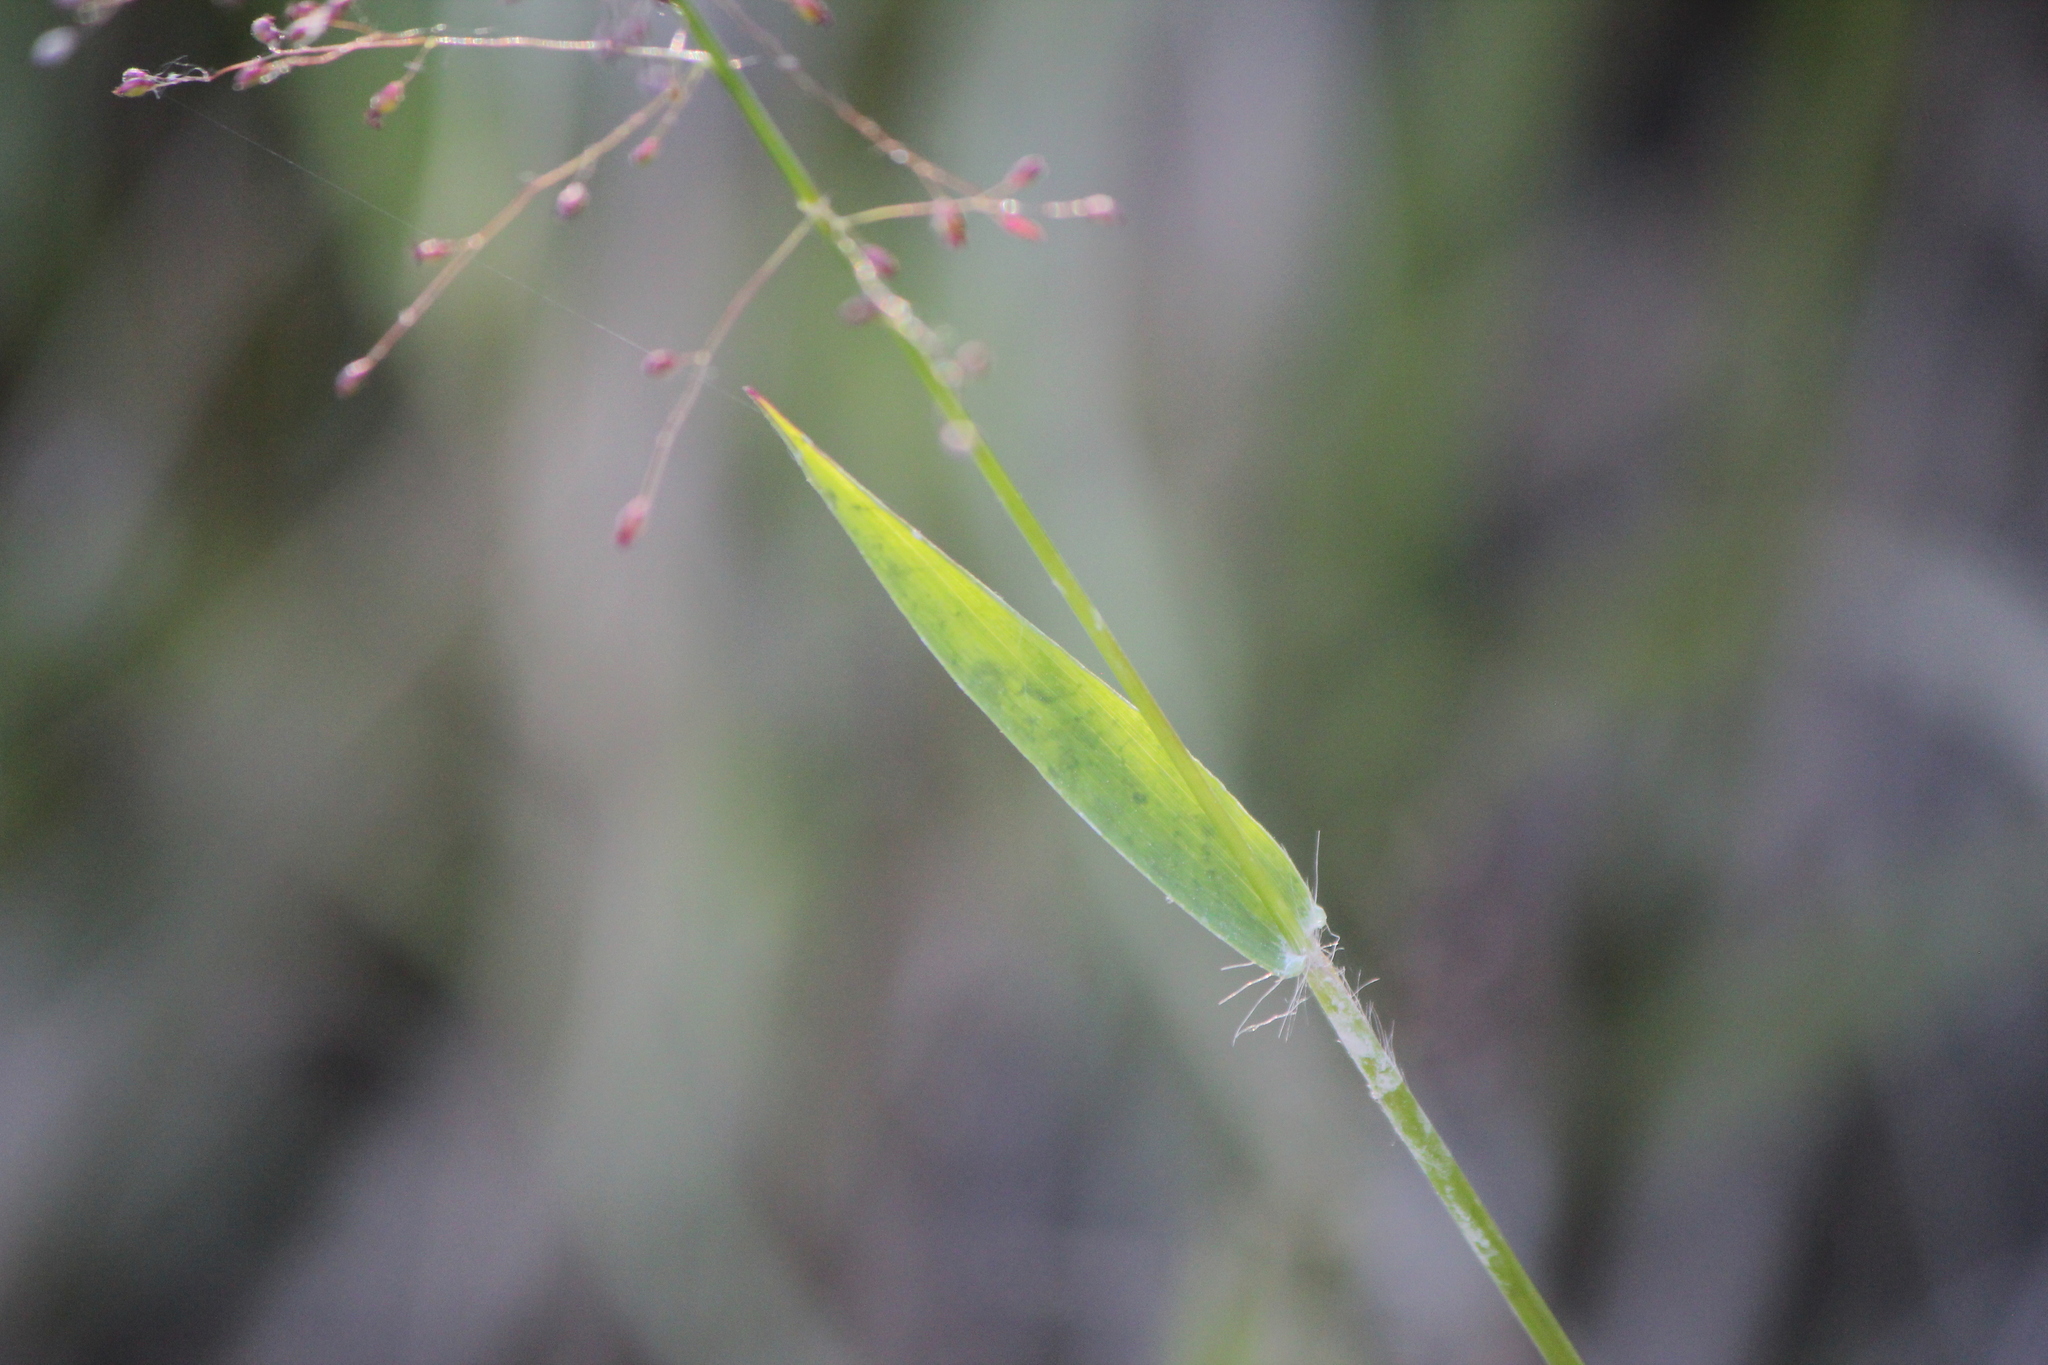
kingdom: Plantae
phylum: Tracheophyta
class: Liliopsida
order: Poales
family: Poaceae
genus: Dichanthelium
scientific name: Dichanthelium lindheimeri
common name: Lindheimer's panicgrass
